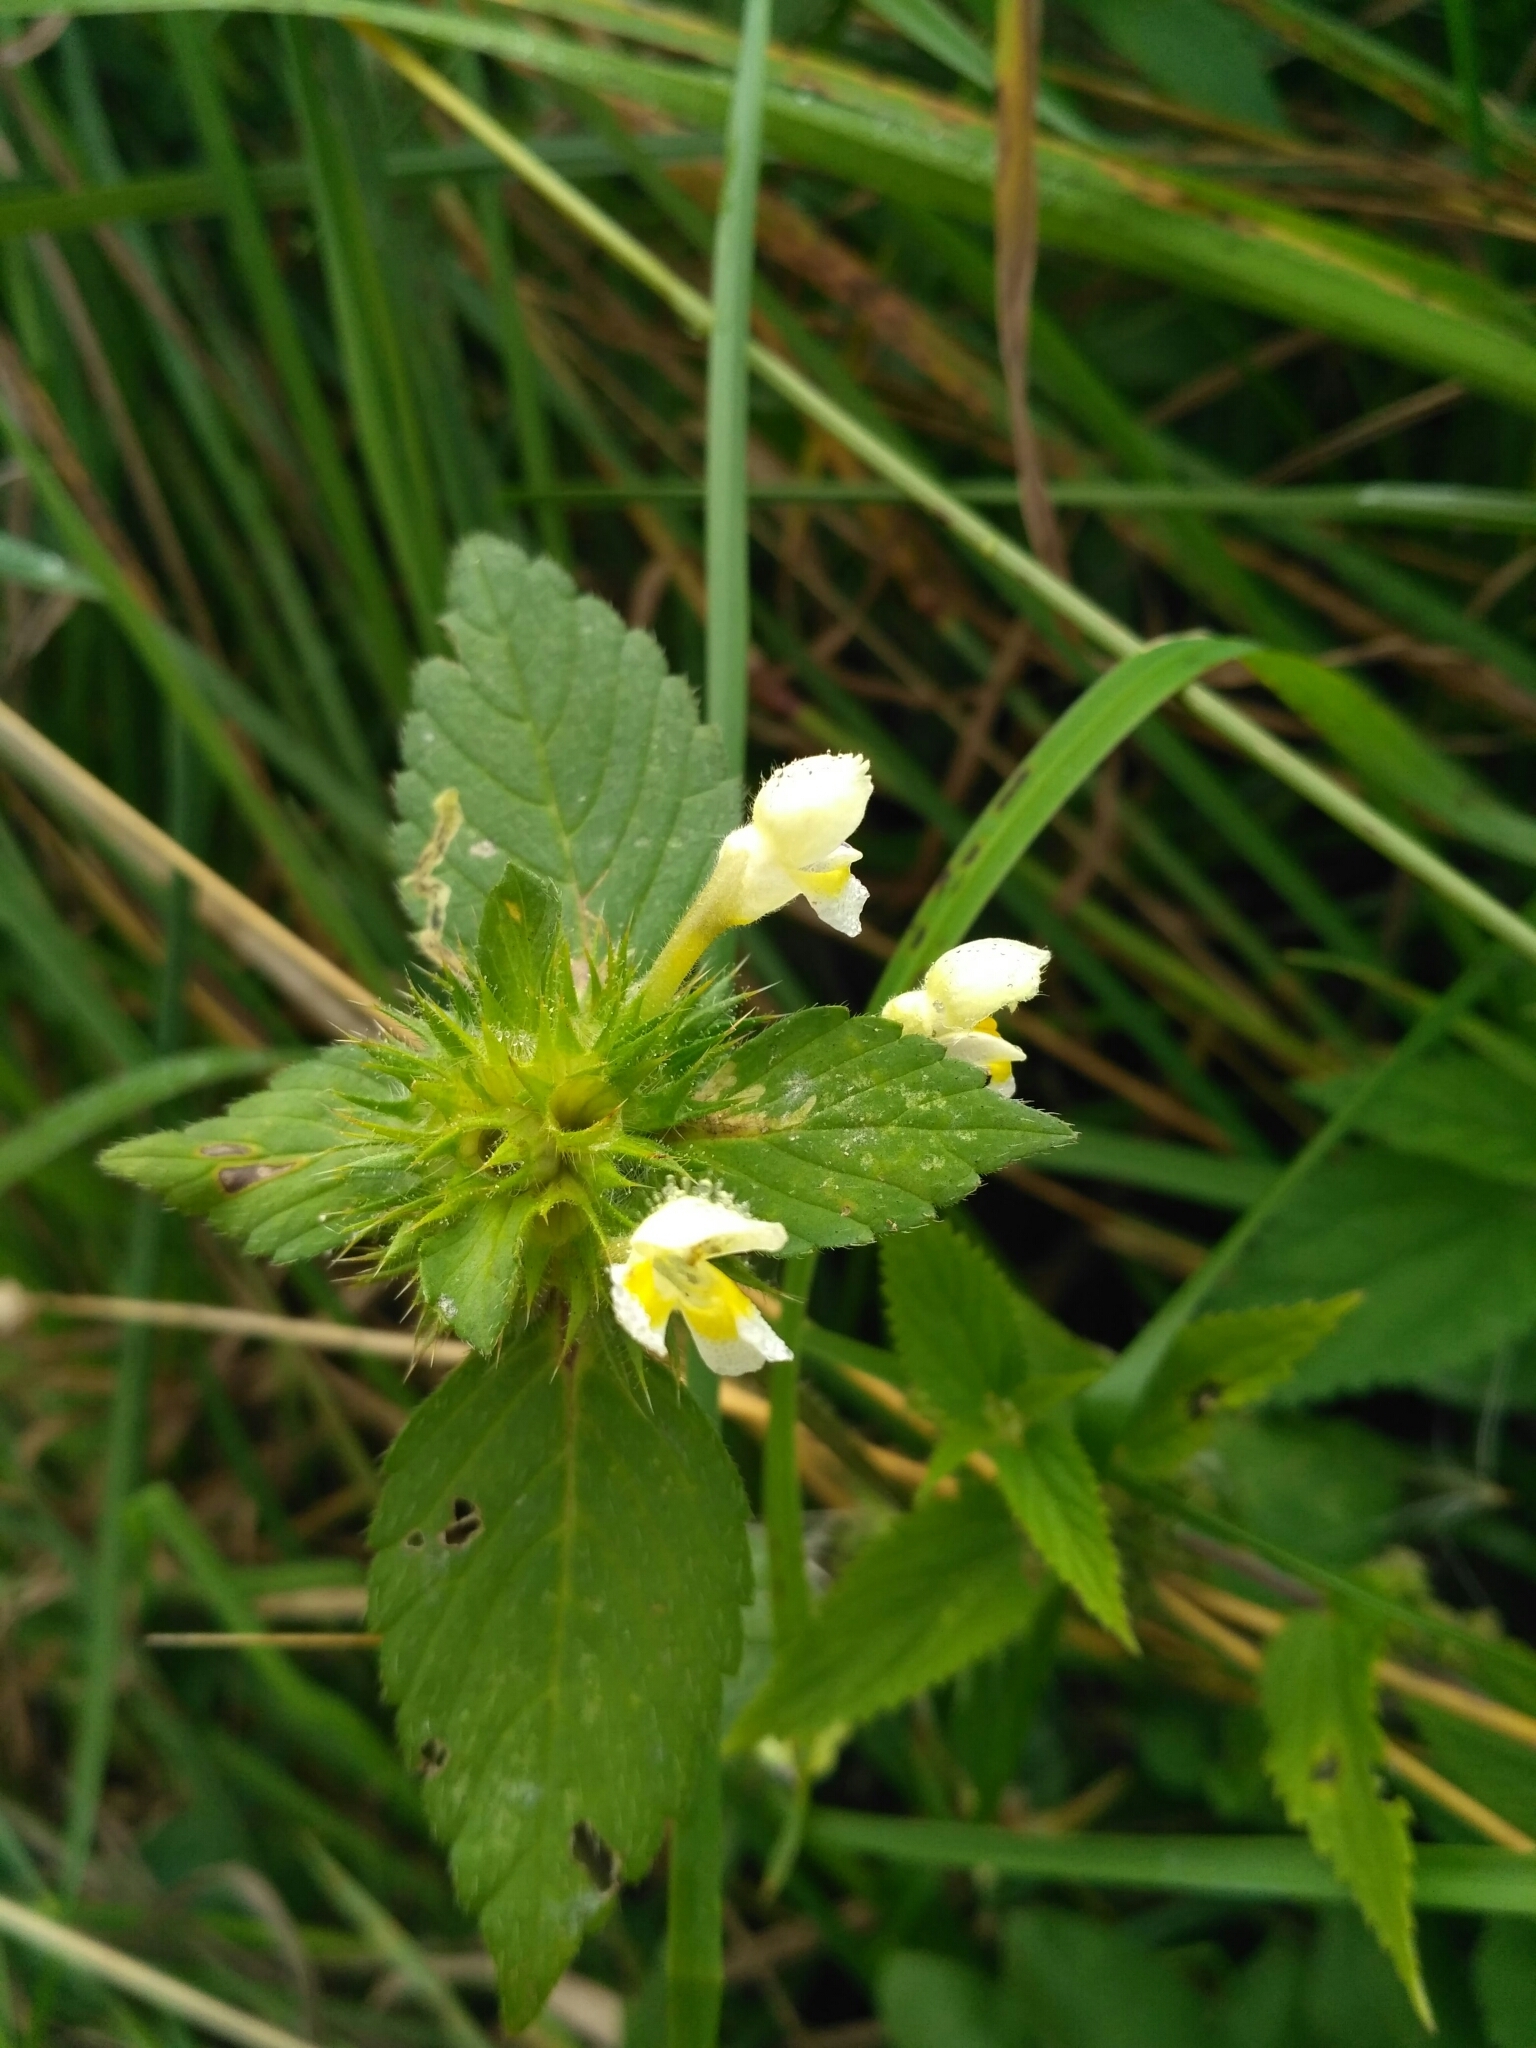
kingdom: Plantae
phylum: Tracheophyta
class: Magnoliopsida
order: Lamiales
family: Lamiaceae
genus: Galeopsis
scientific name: Galeopsis speciosa
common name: Large-flowered hemp-nettle
